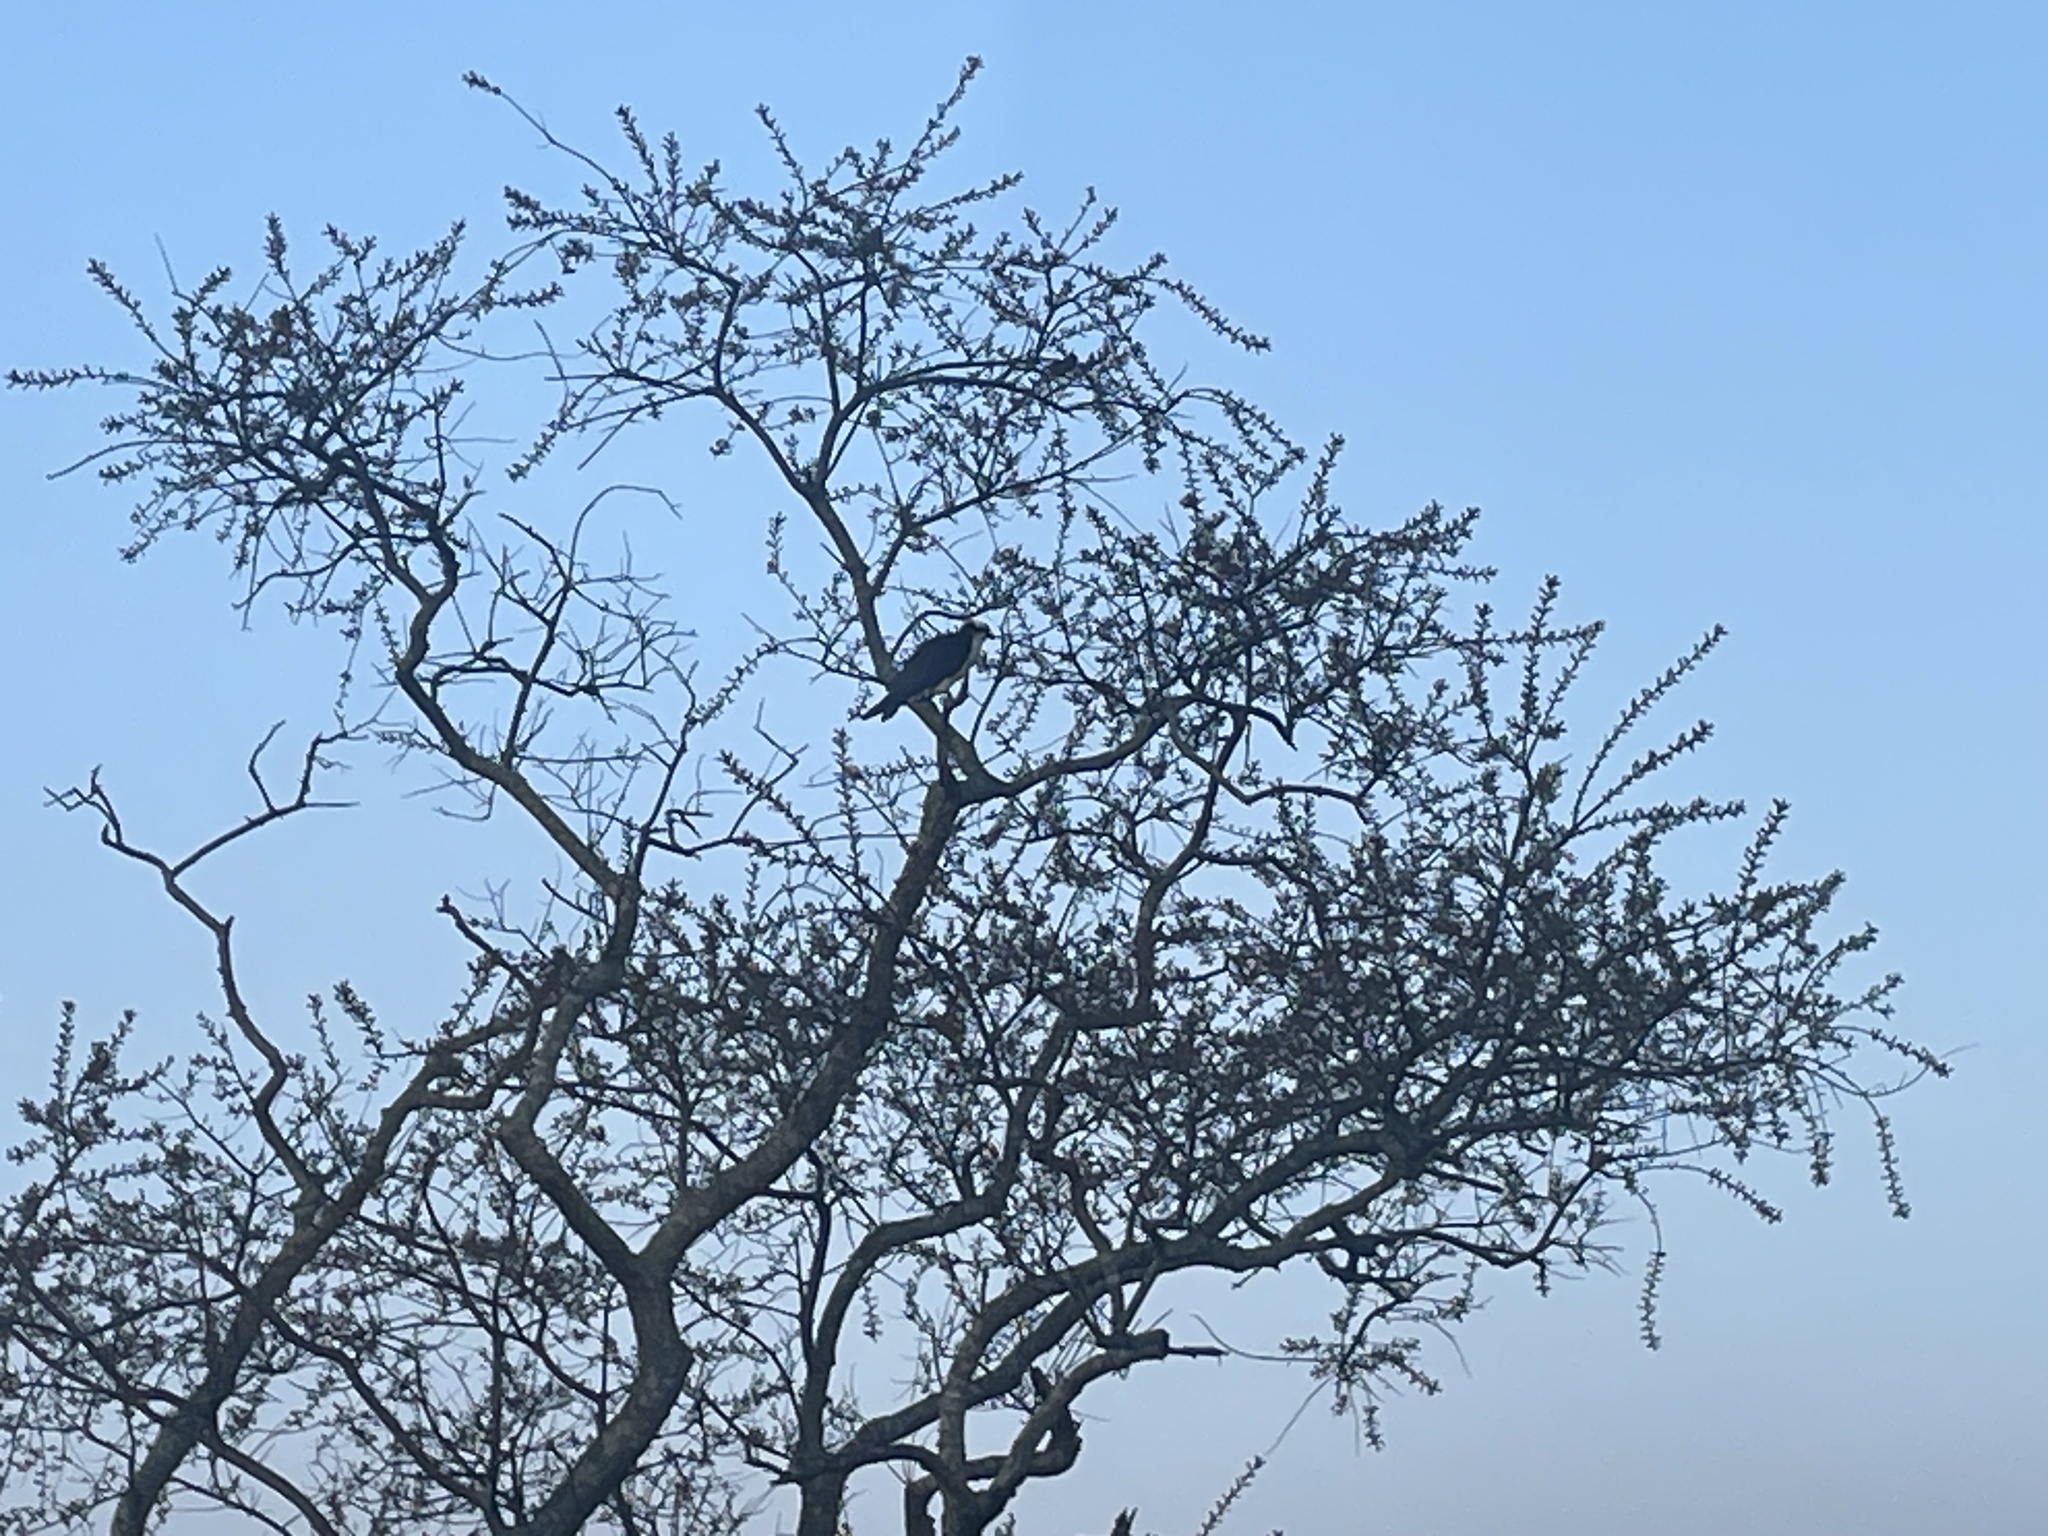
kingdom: Animalia
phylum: Chordata
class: Aves
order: Accipitriformes
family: Pandionidae
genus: Pandion
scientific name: Pandion haliaetus
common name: Osprey
